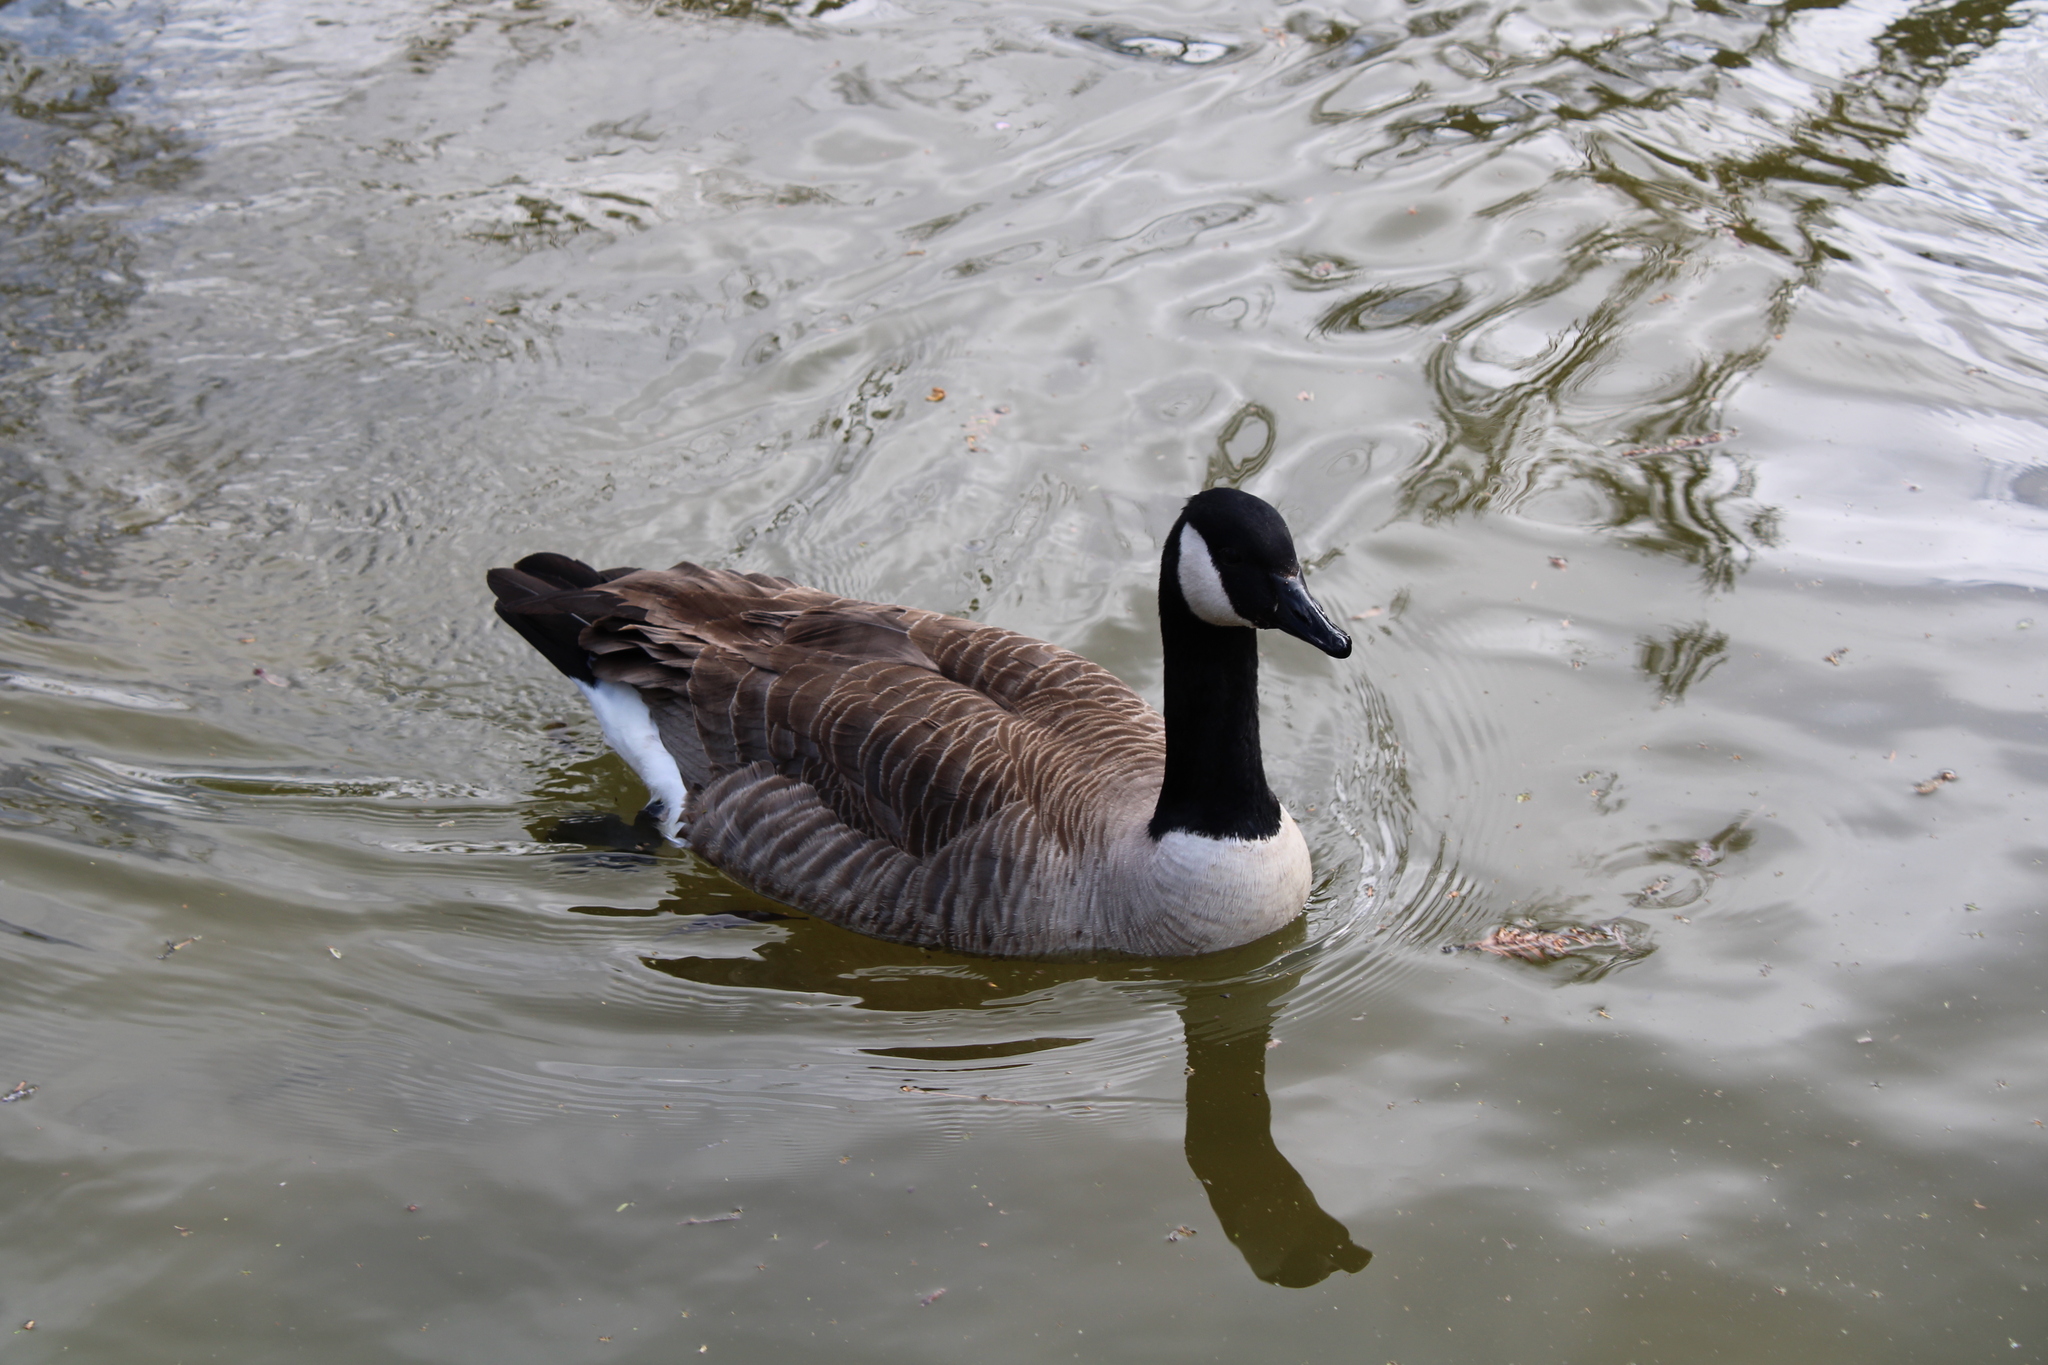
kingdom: Animalia
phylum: Chordata
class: Aves
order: Anseriformes
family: Anatidae
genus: Branta
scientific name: Branta canadensis
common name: Canada goose
